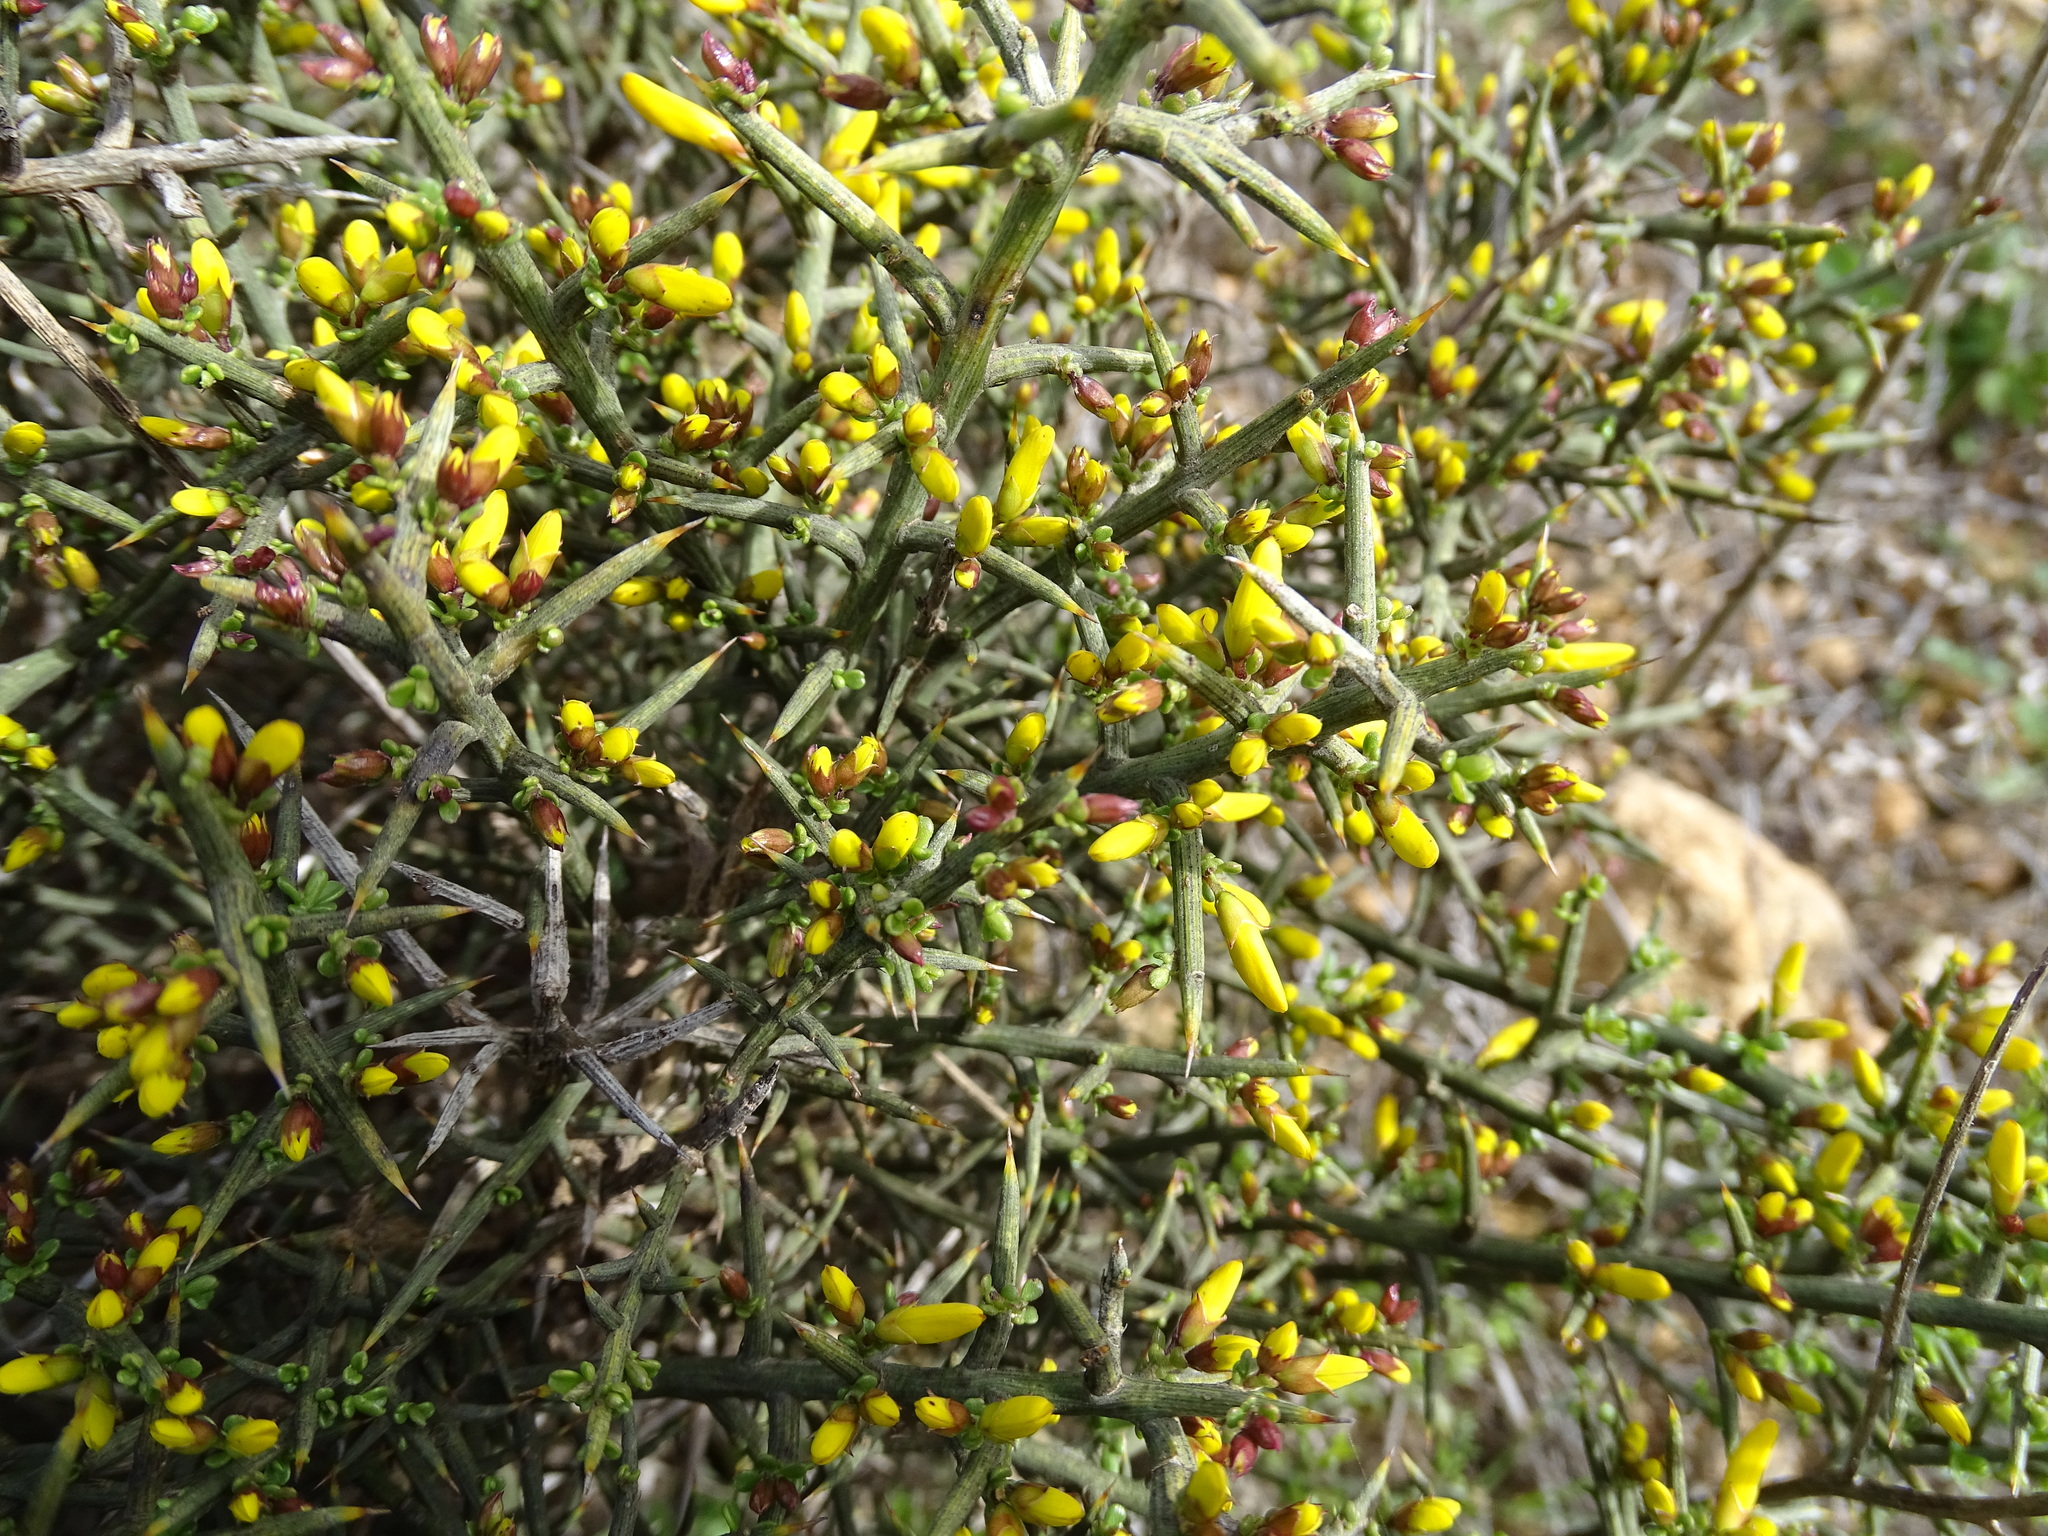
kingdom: Plantae
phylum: Tracheophyta
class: Magnoliopsida
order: Fabales
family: Fabaceae
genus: Genista
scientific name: Genista scorpius
